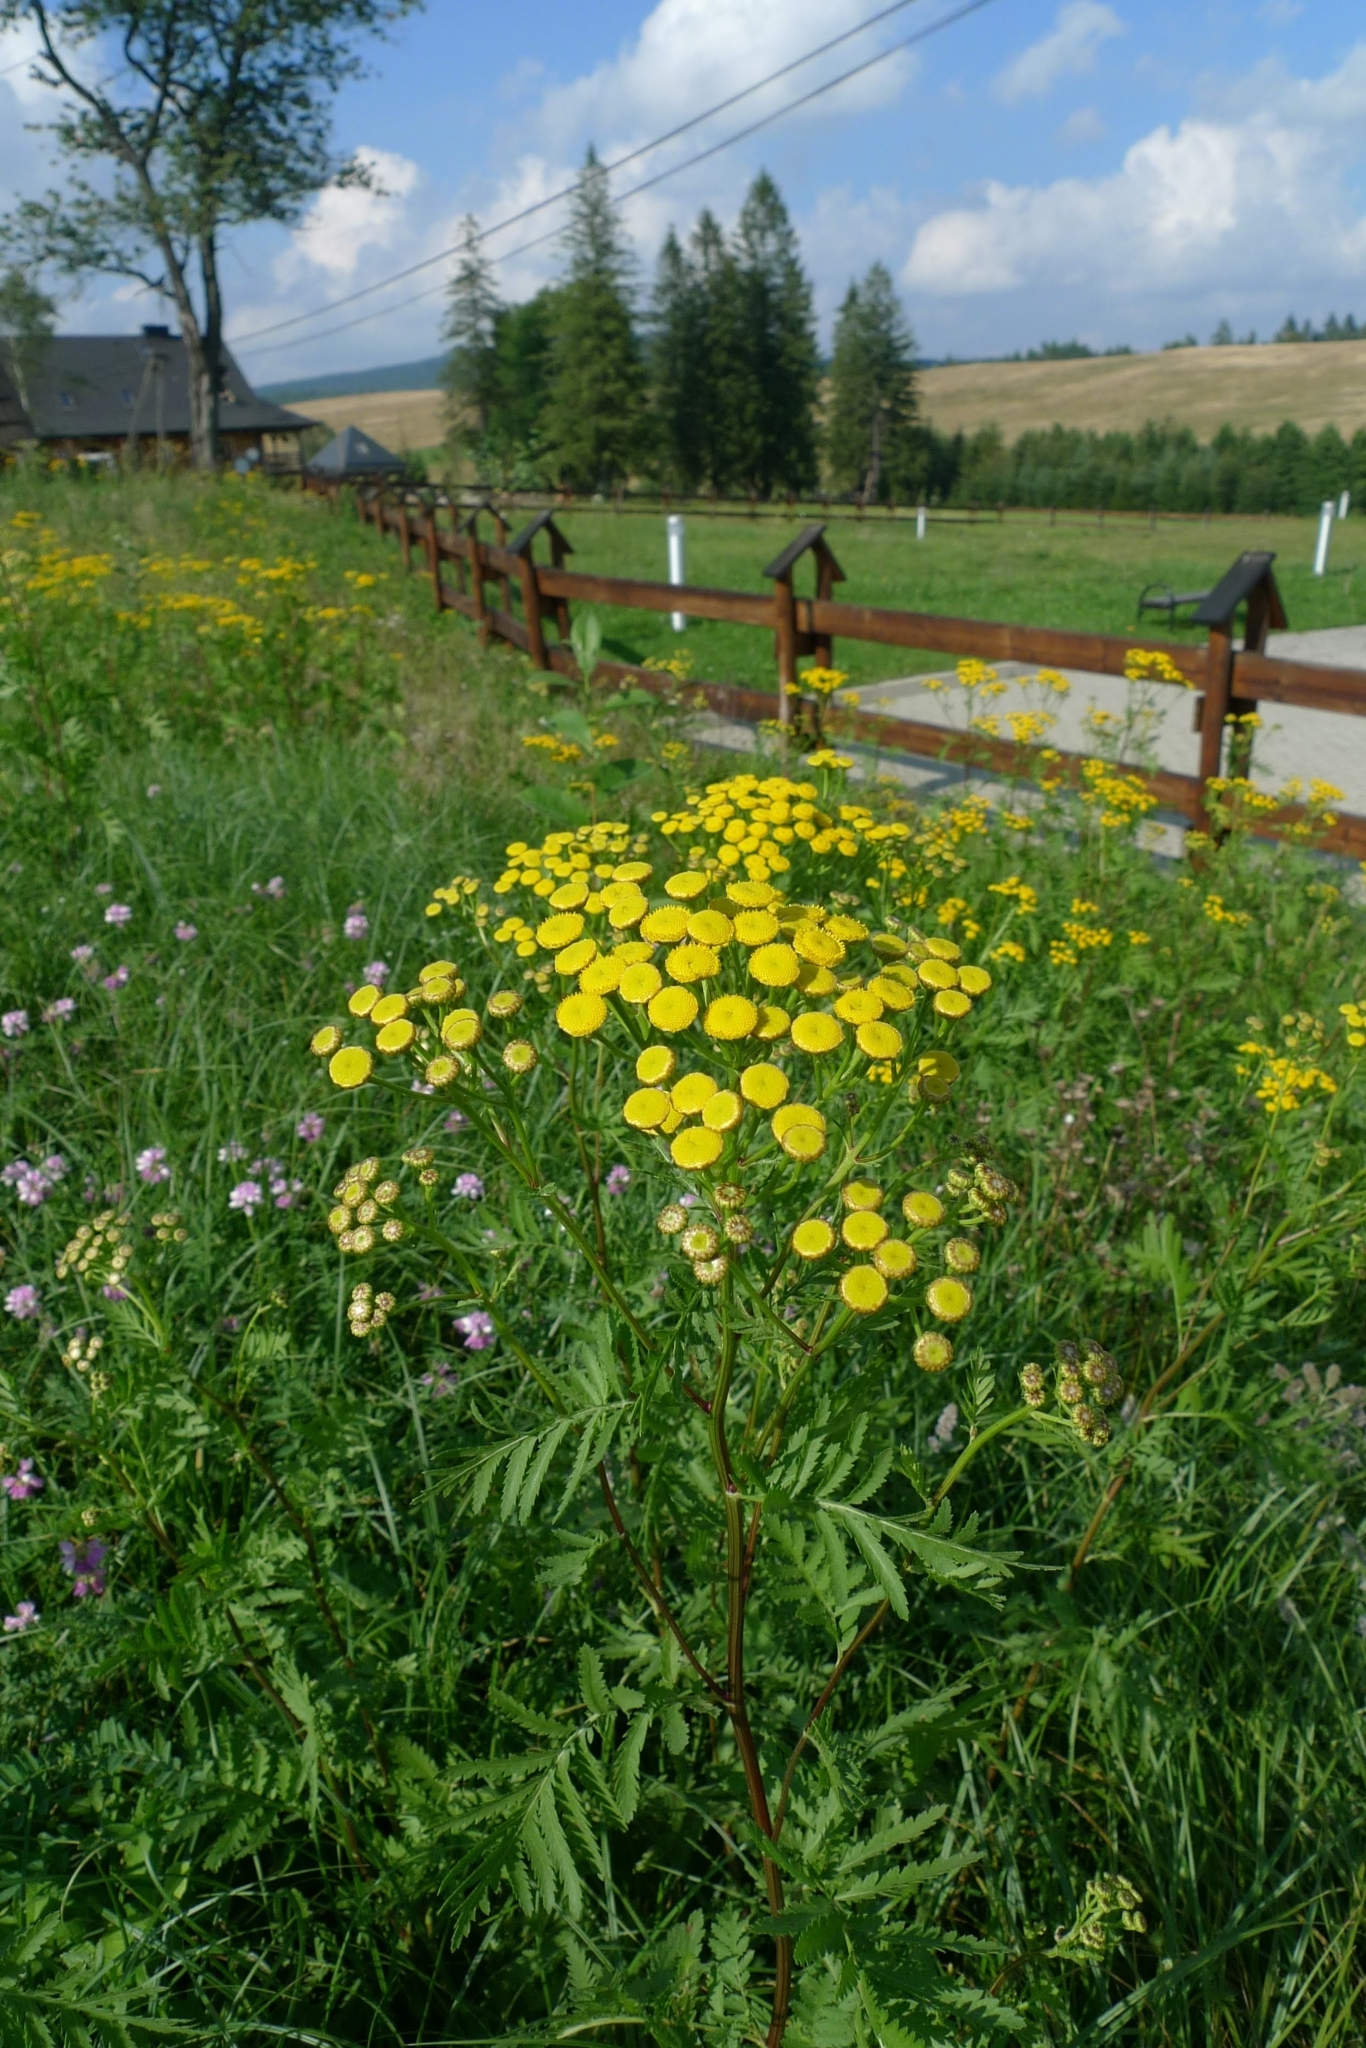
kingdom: Plantae
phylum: Tracheophyta
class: Magnoliopsida
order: Asterales
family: Asteraceae
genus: Tanacetum
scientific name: Tanacetum vulgare
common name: Common tansy
